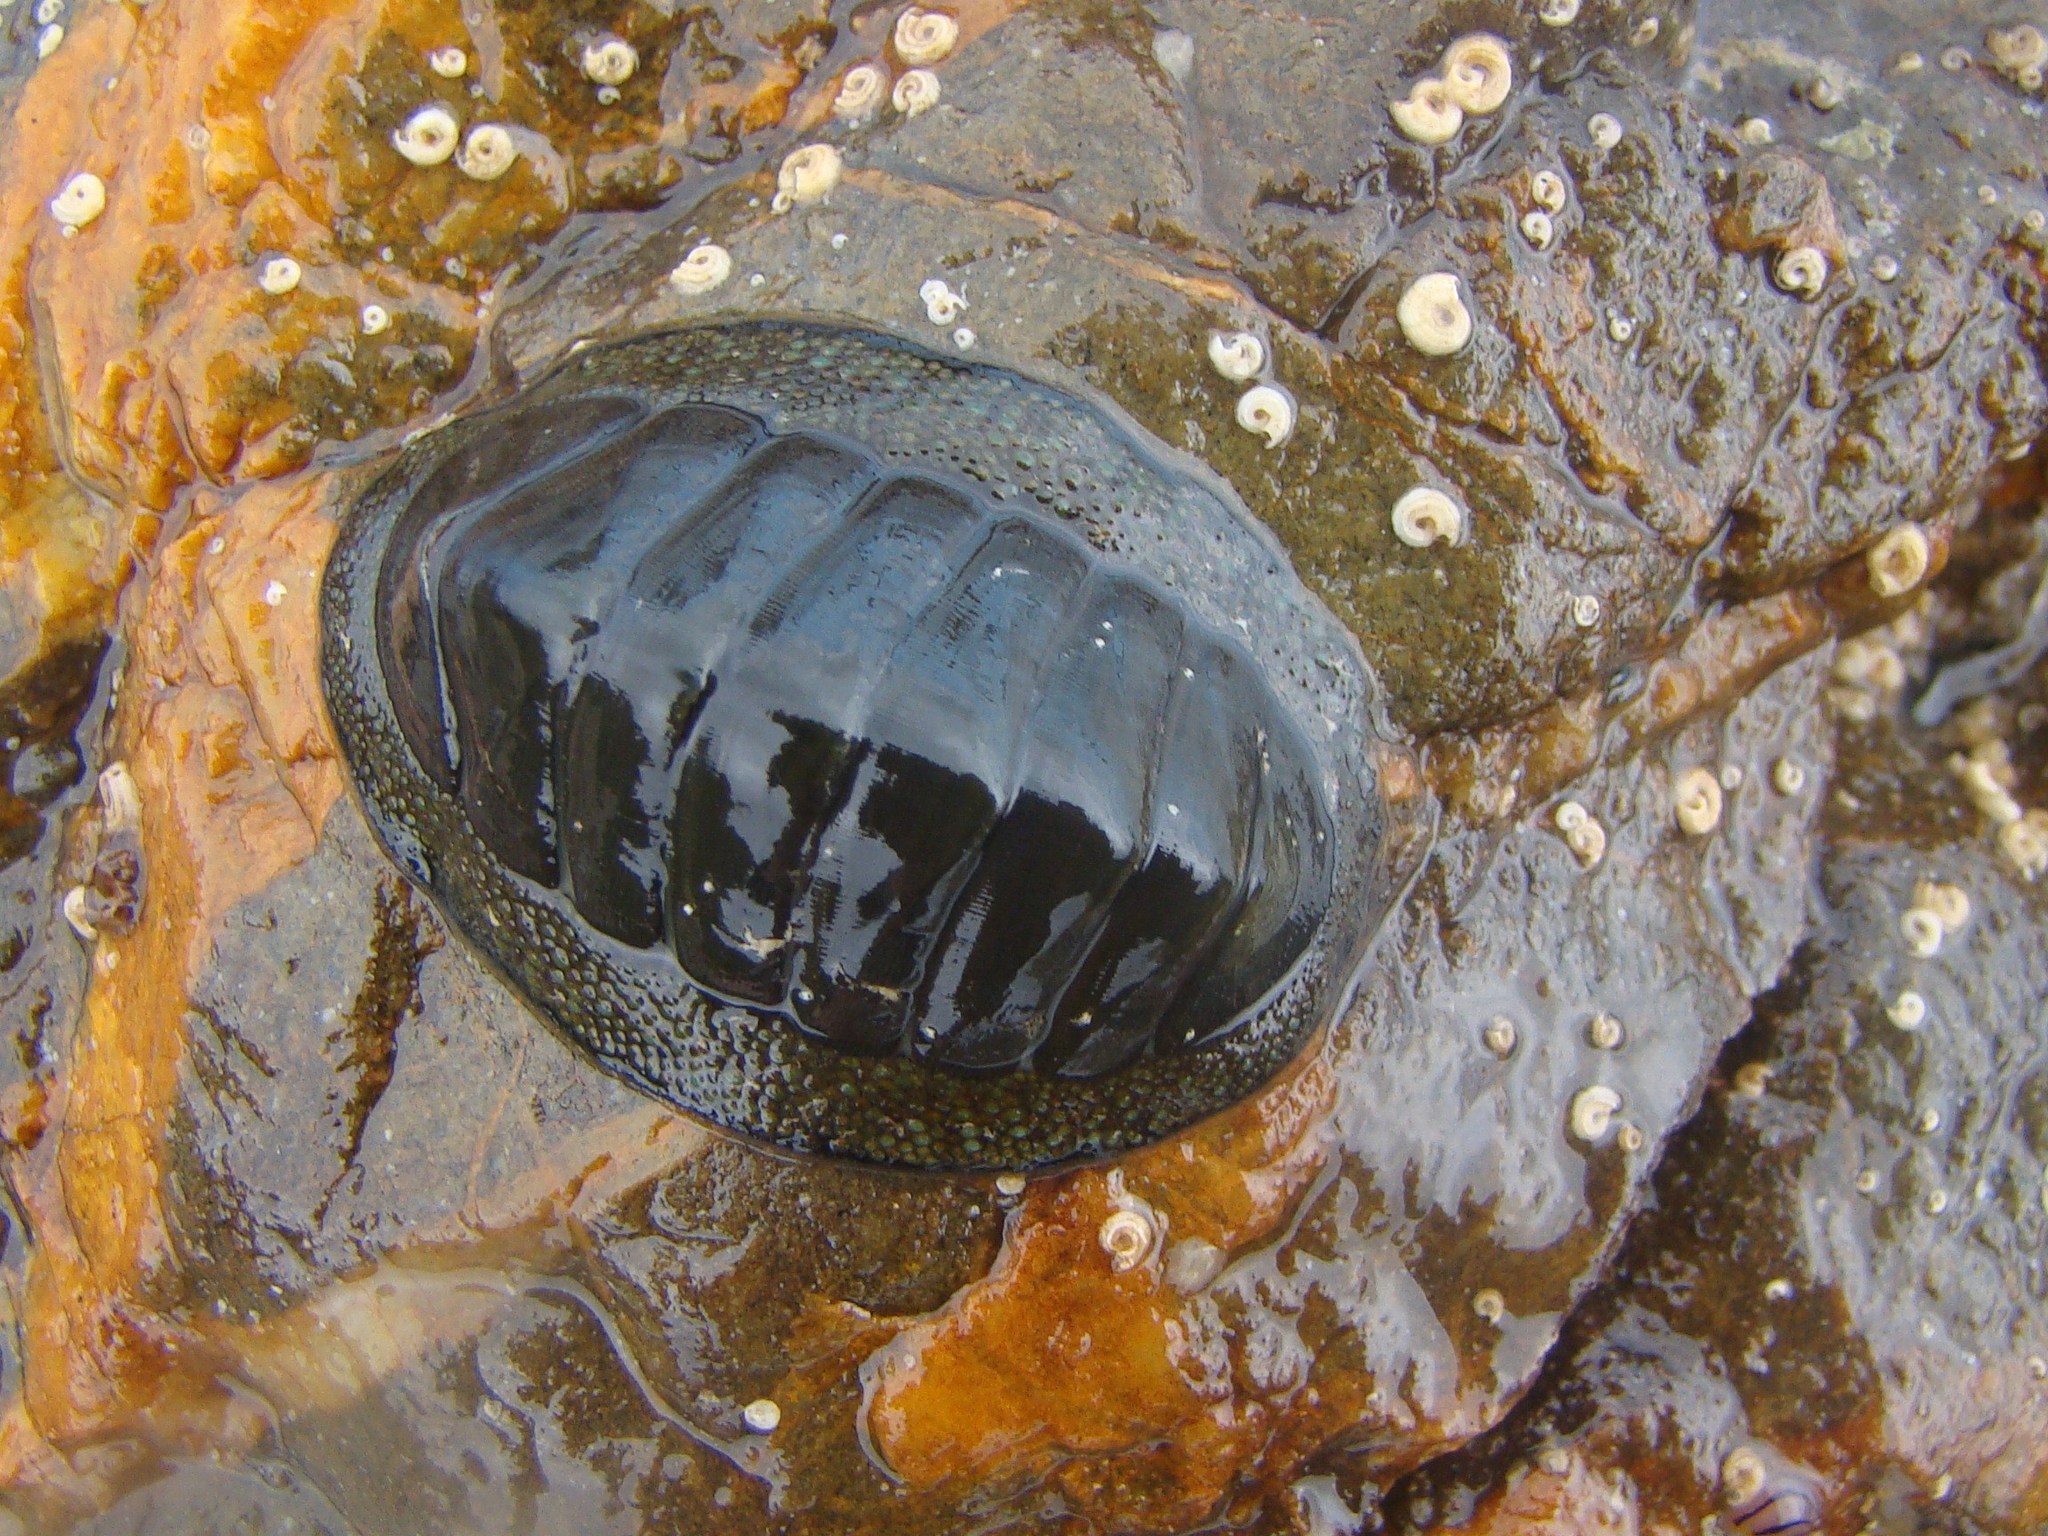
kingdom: Animalia
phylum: Mollusca
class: Polyplacophora
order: Chitonida
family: Chitonidae
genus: Chiton
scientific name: Chiton glaucus
